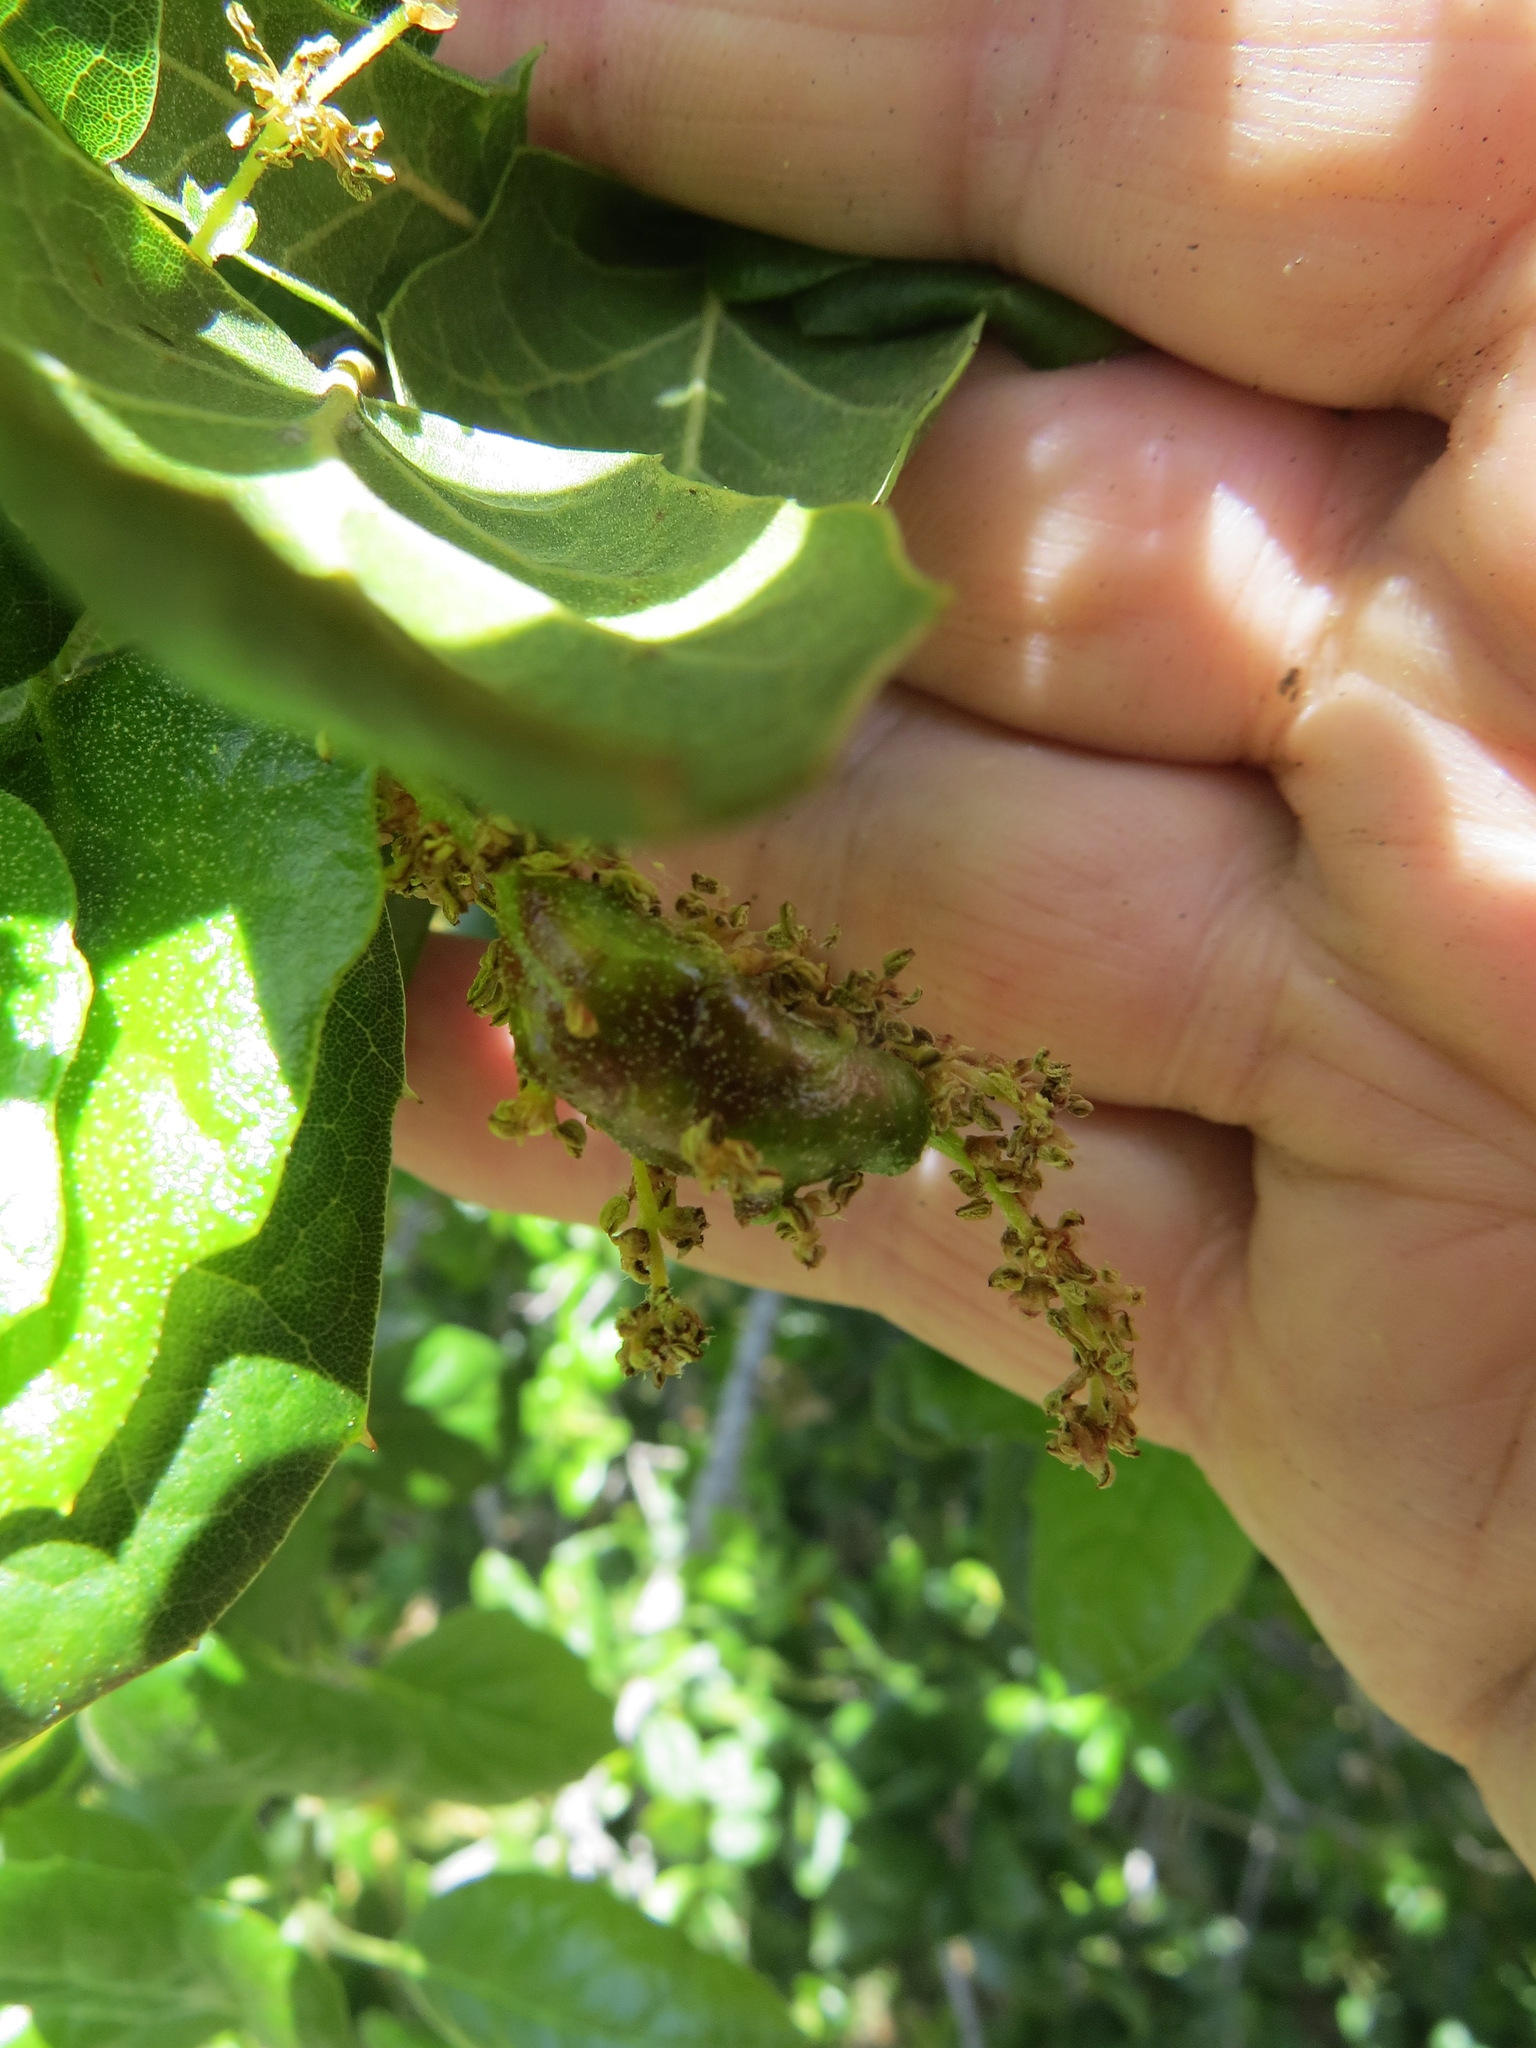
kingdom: Animalia
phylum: Arthropoda
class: Insecta
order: Hymenoptera
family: Cynipidae
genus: Callirhytis
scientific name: Callirhytis
